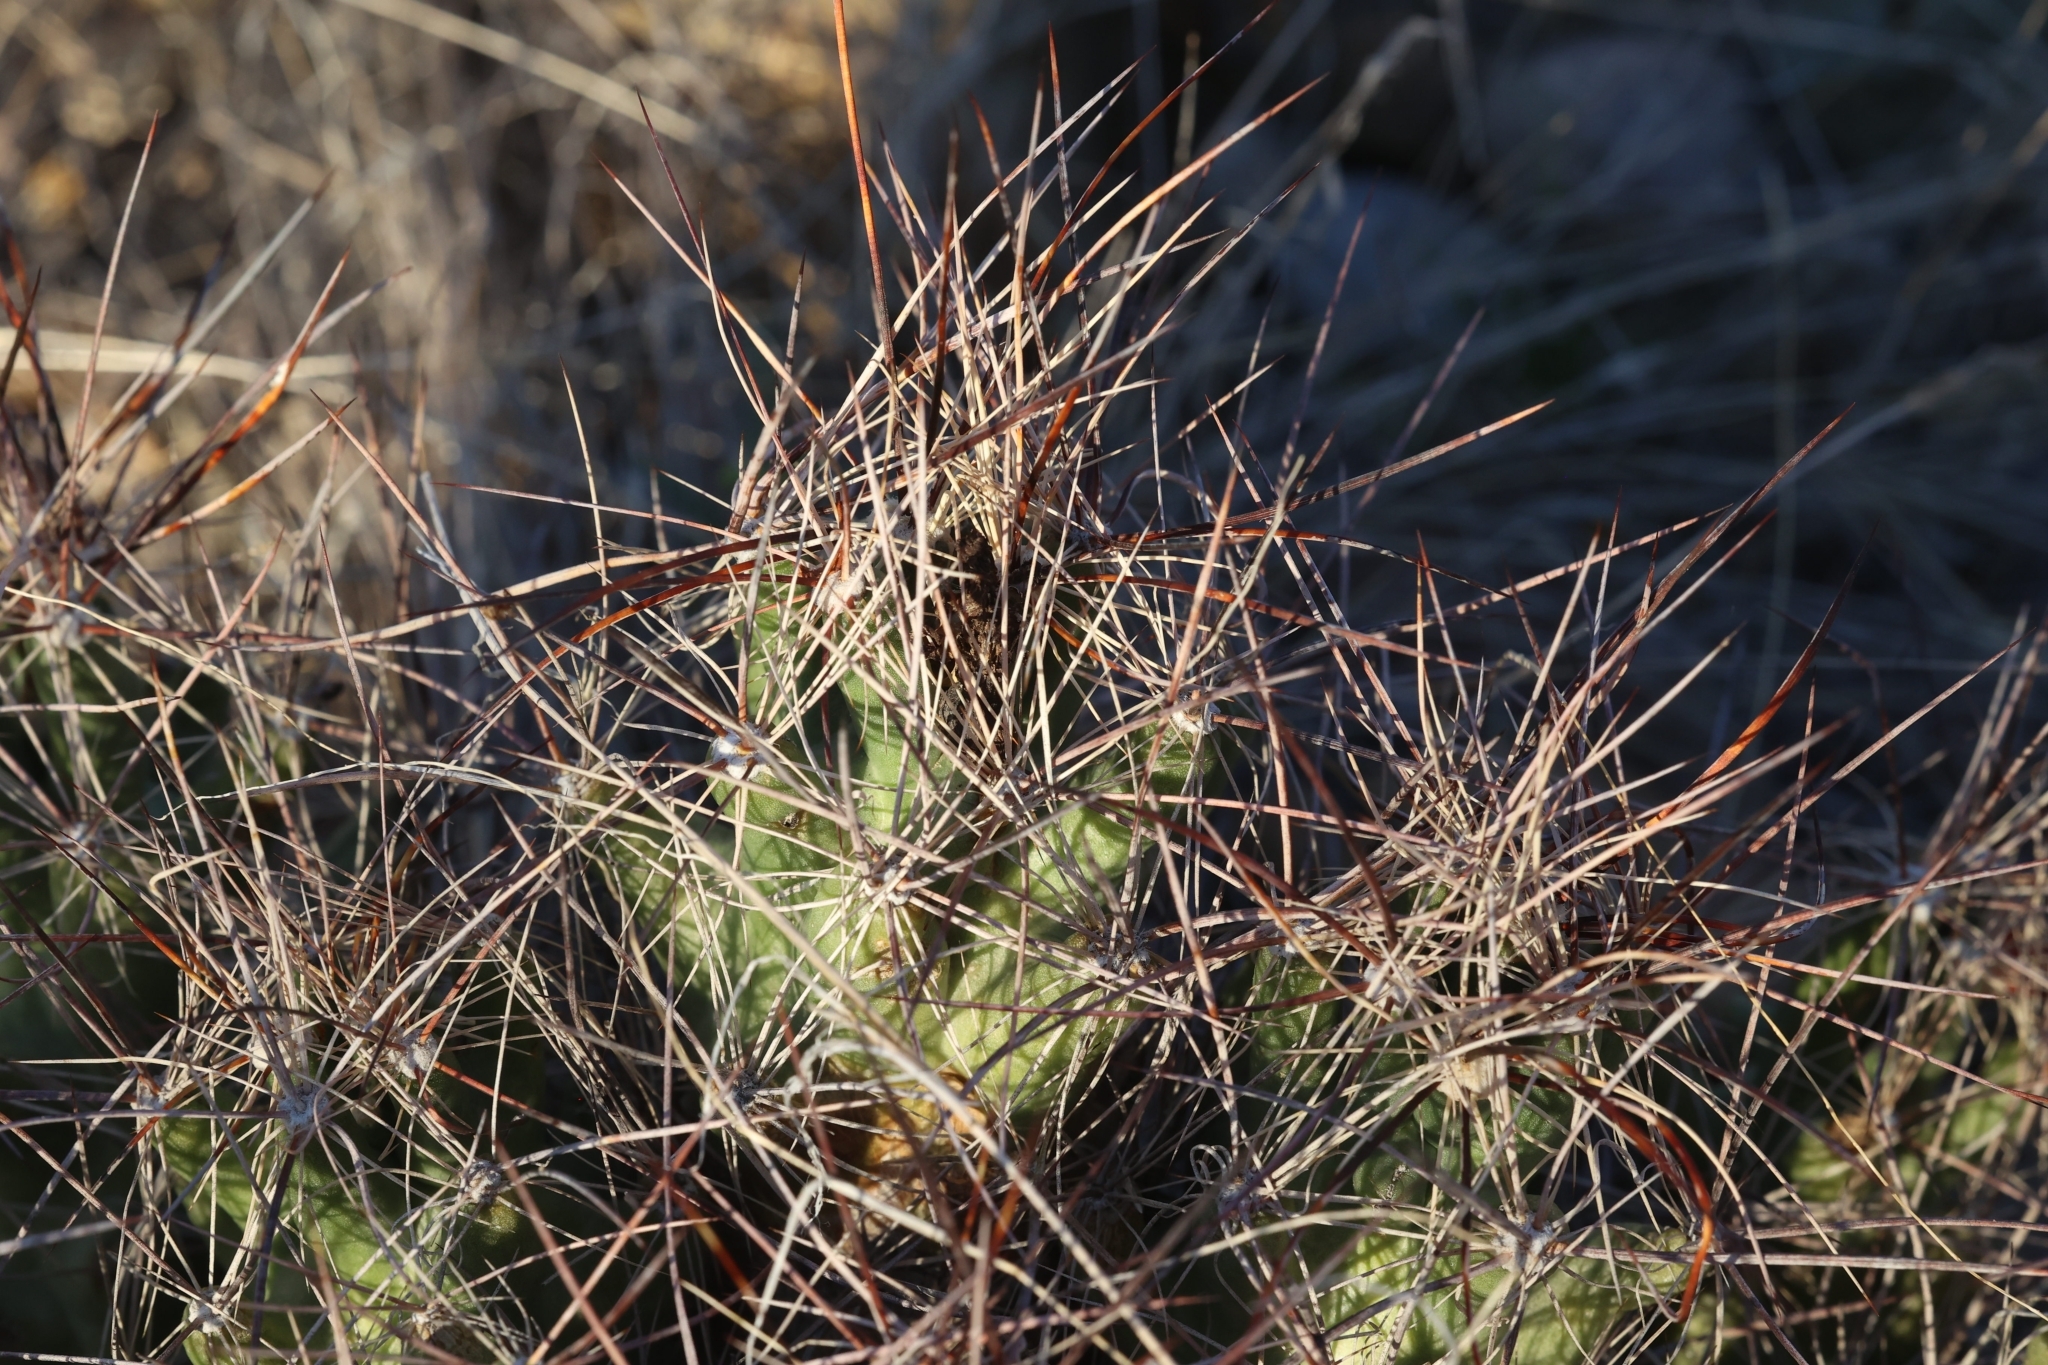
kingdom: Plantae
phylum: Tracheophyta
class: Magnoliopsida
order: Caryophyllales
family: Cactaceae
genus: Coryphantha
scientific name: Coryphantha macromeris
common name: Nipple beehive cactus
